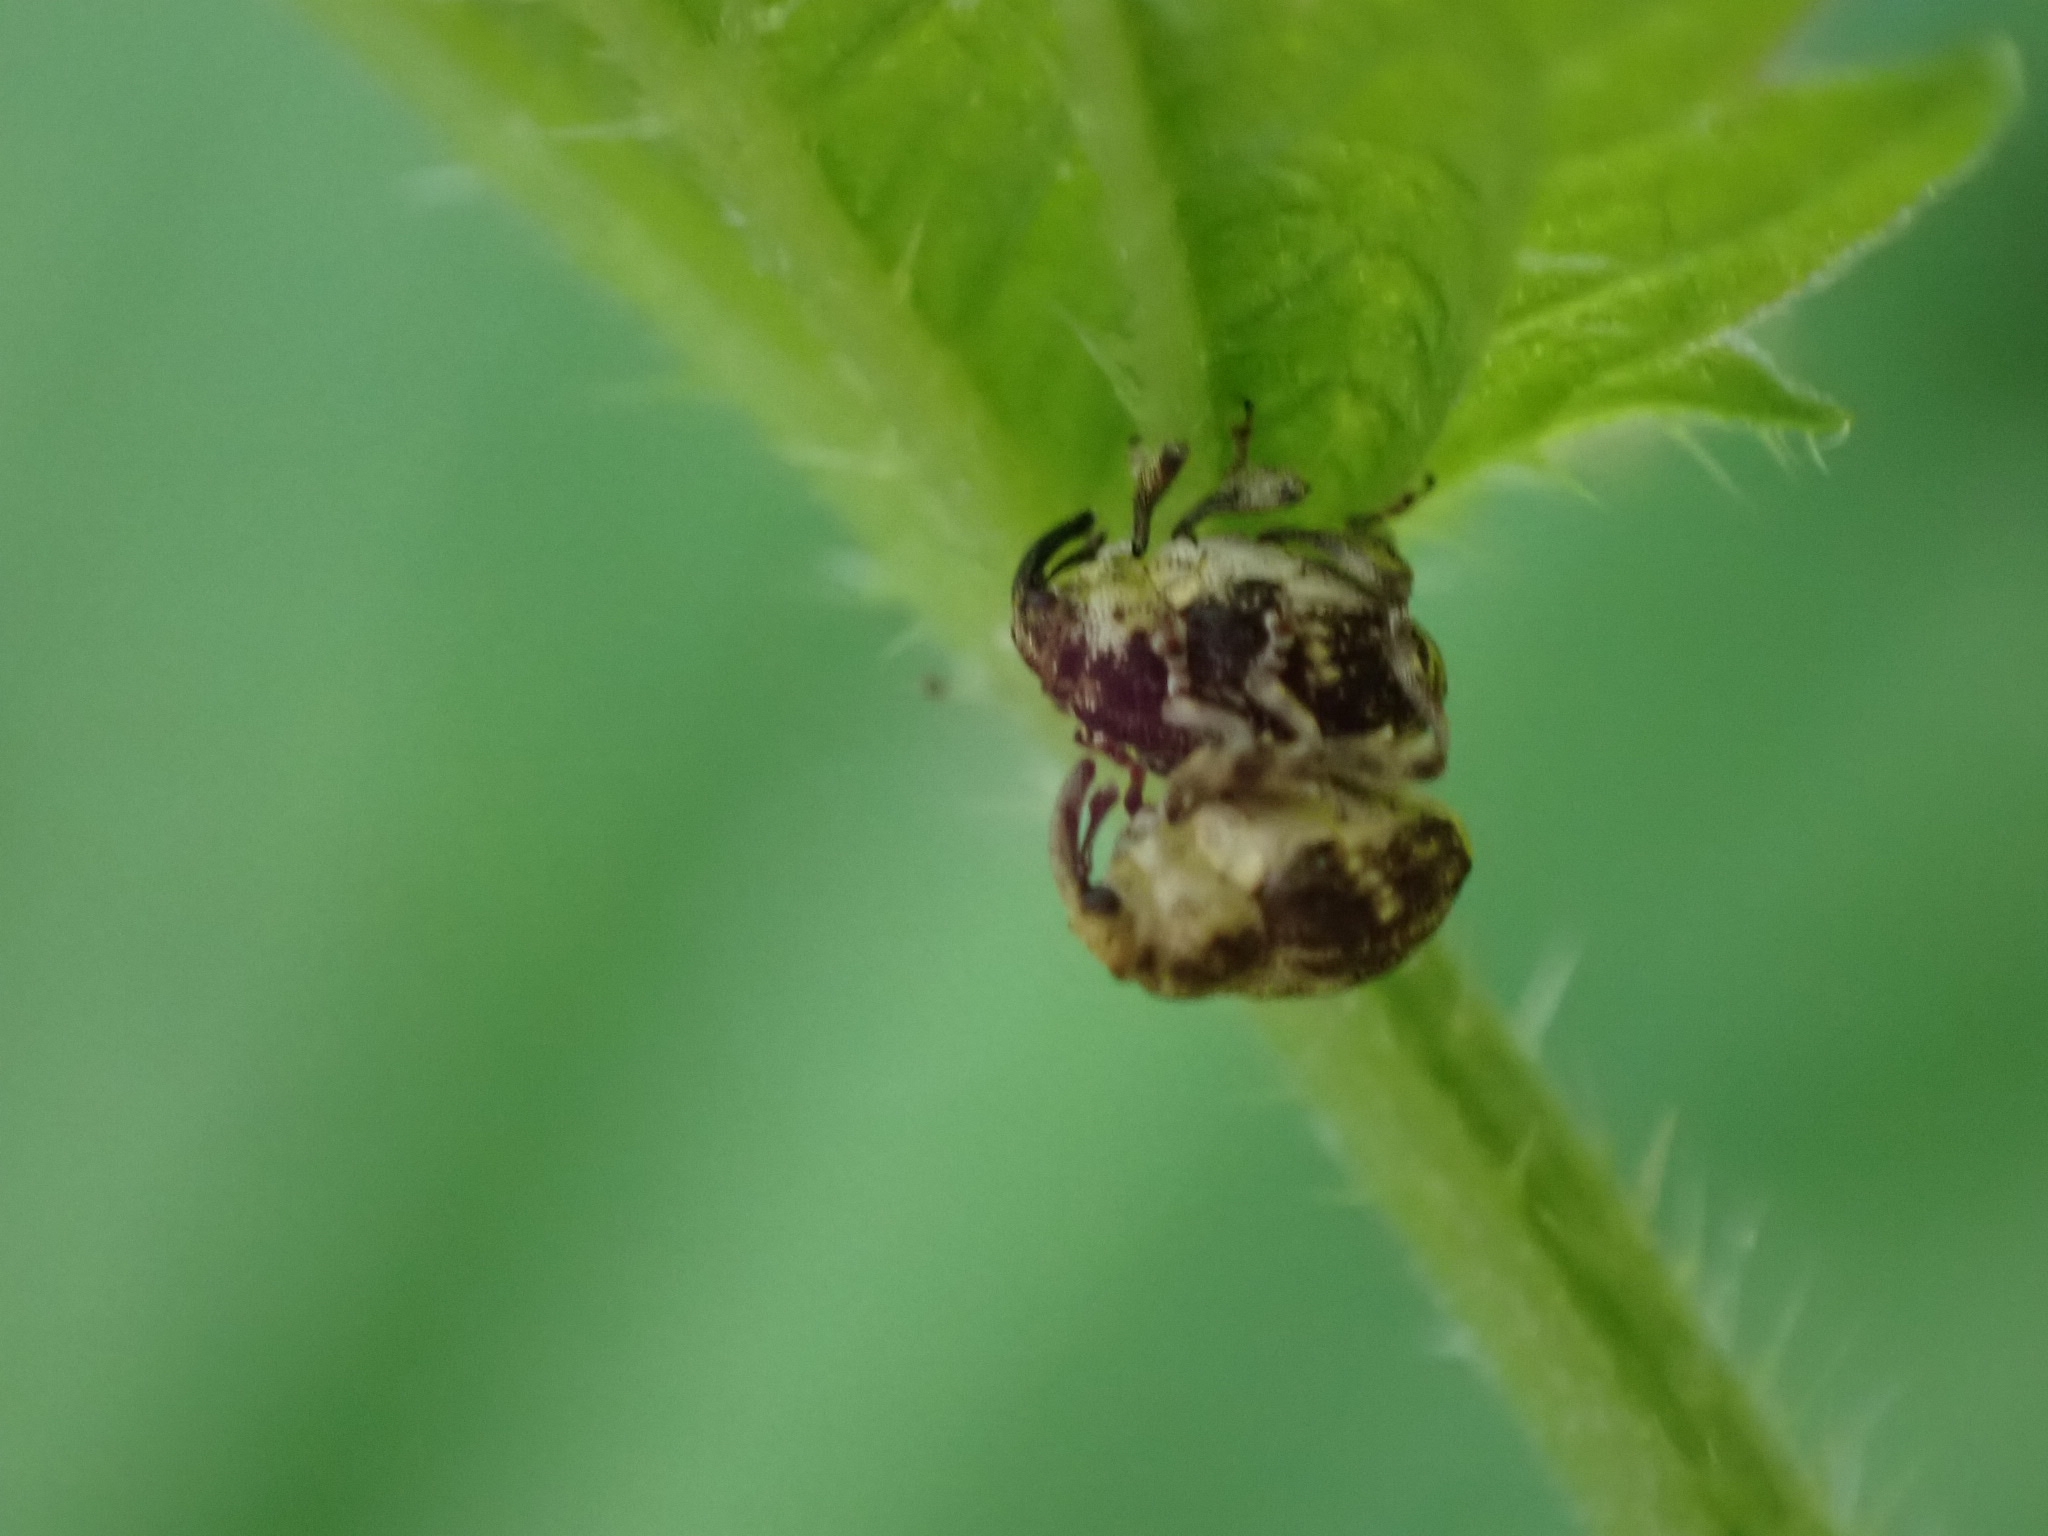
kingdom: Animalia
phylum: Arthropoda
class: Insecta
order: Coleoptera
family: Curculionidae
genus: Nedyus
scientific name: Nedyus quadrimaculatus
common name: Small nettle weevil
